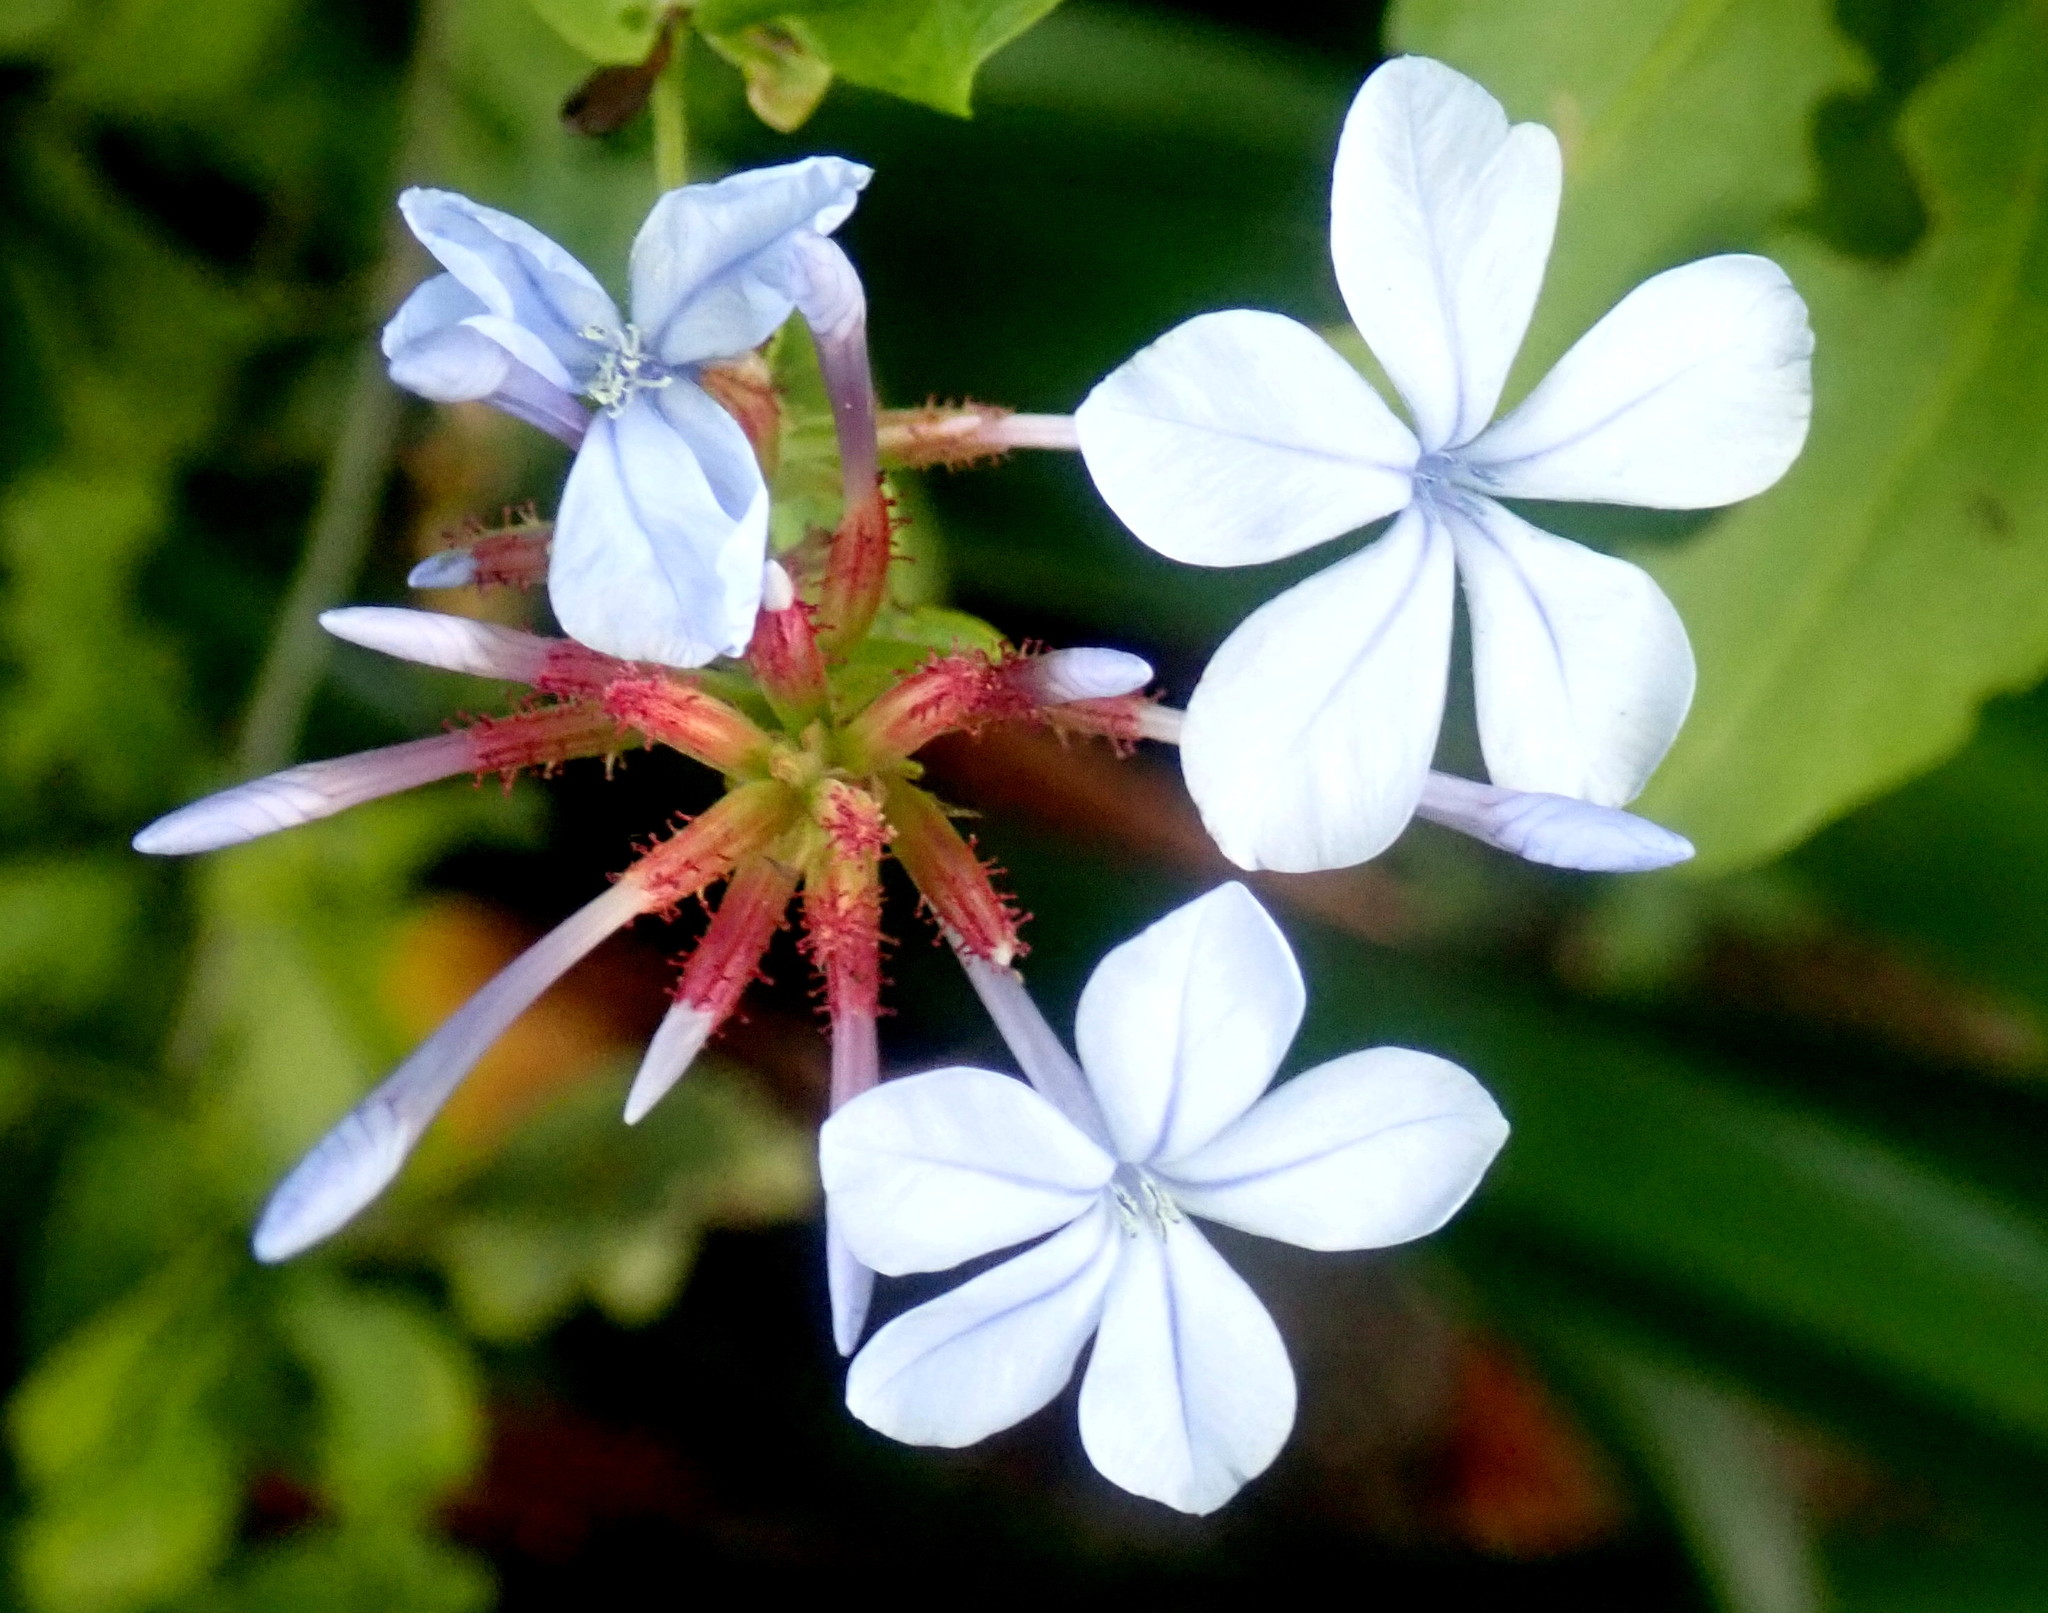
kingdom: Plantae
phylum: Tracheophyta
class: Magnoliopsida
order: Caryophyllales
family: Plumbaginaceae
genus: Plumbago
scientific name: Plumbago auriculata
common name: Cape leadwort
